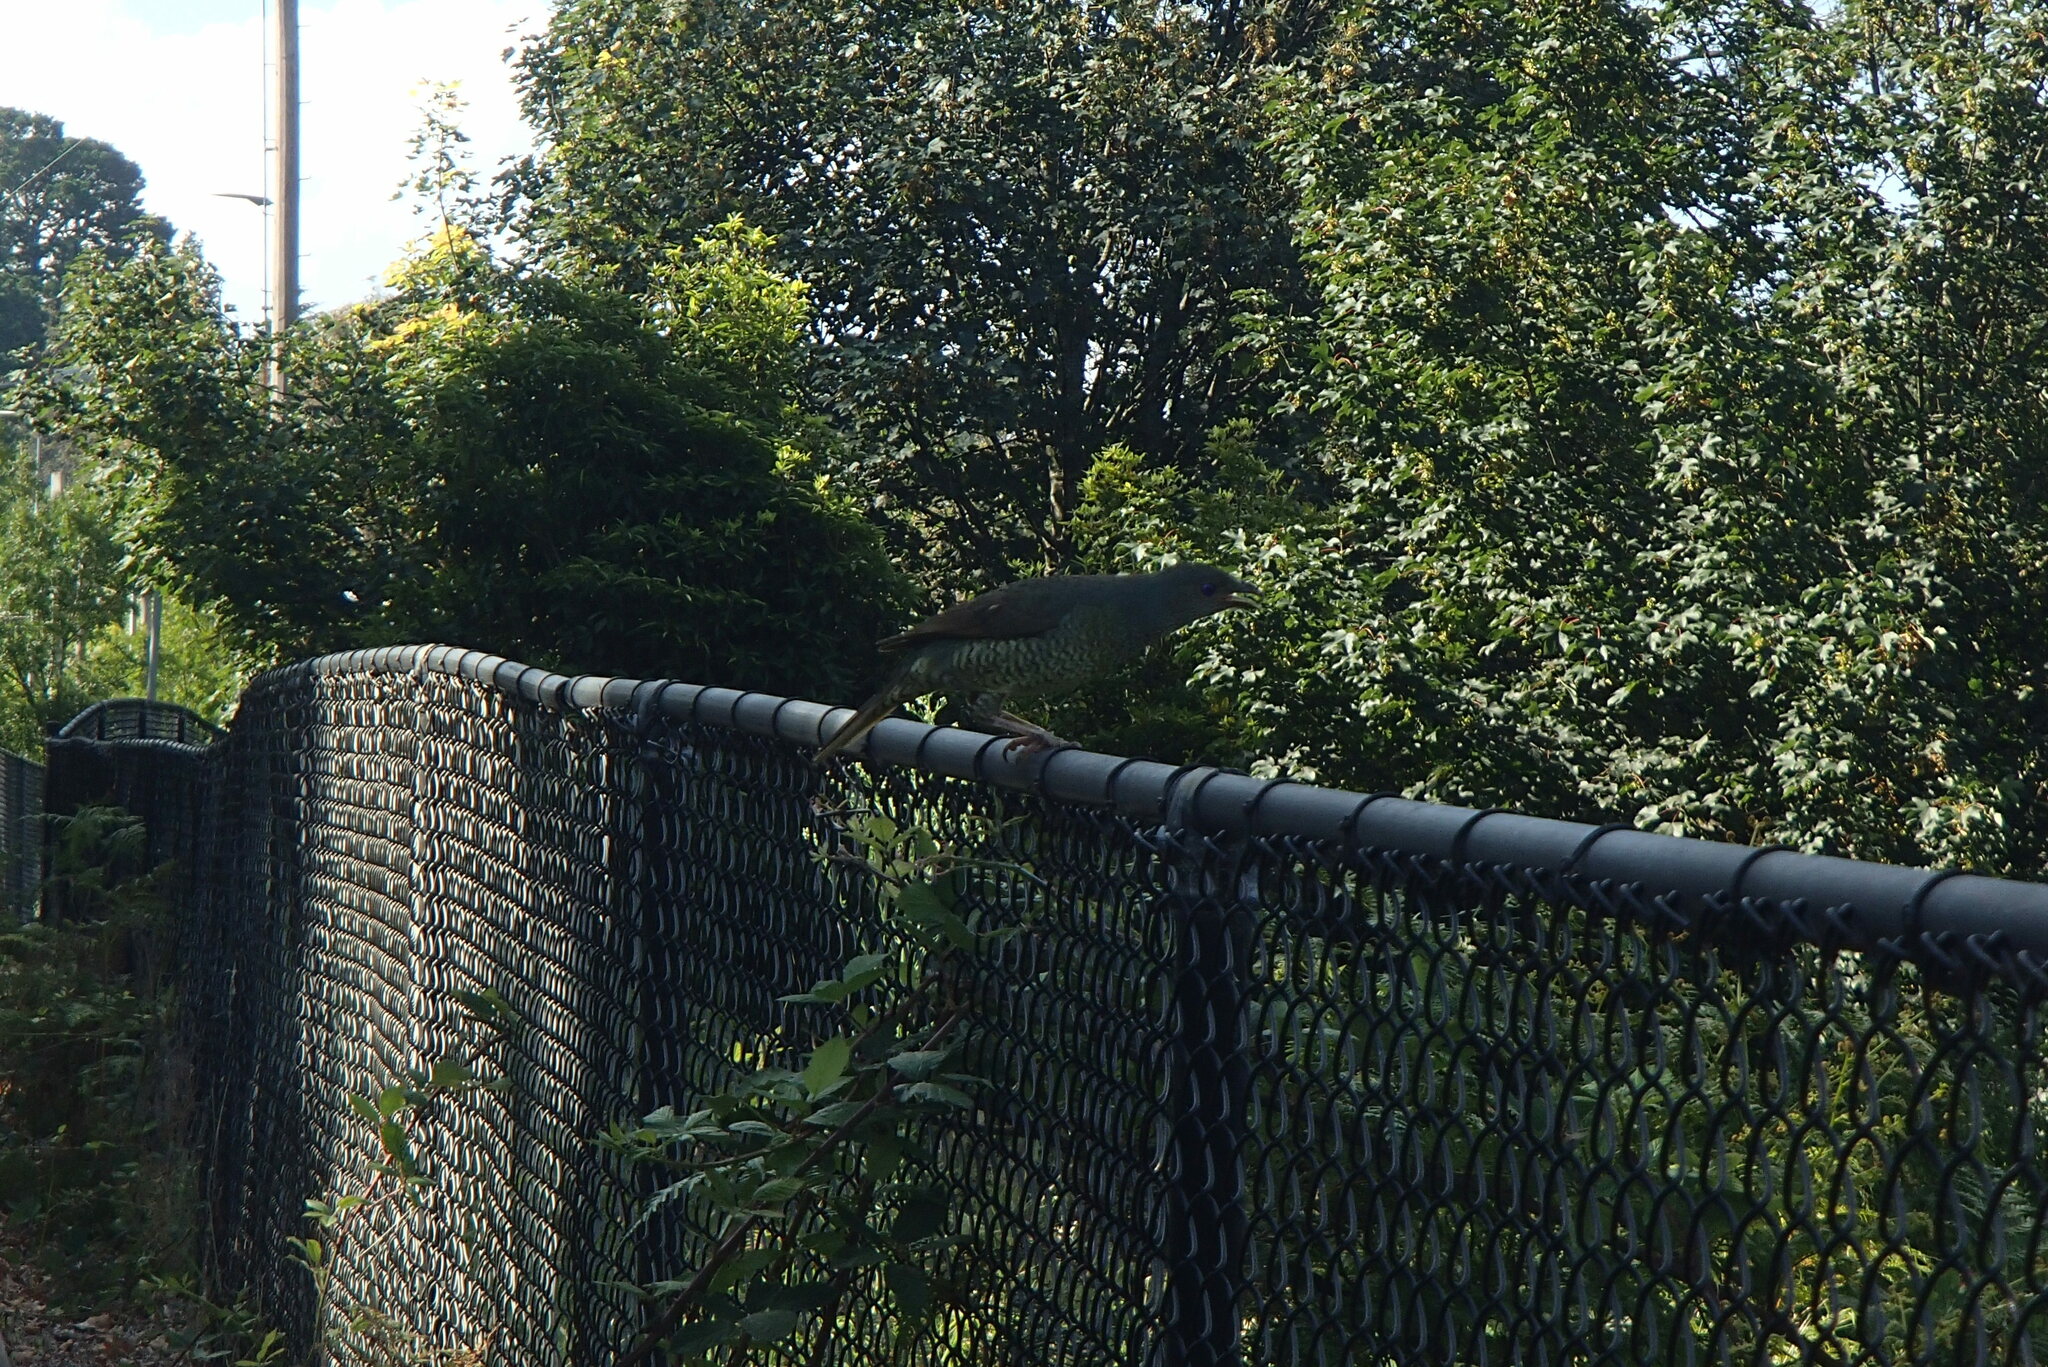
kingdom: Animalia
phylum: Chordata
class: Aves
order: Passeriformes
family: Ptilonorhynchidae
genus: Ptilonorhynchus
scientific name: Ptilonorhynchus violaceus
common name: Satin bowerbird
